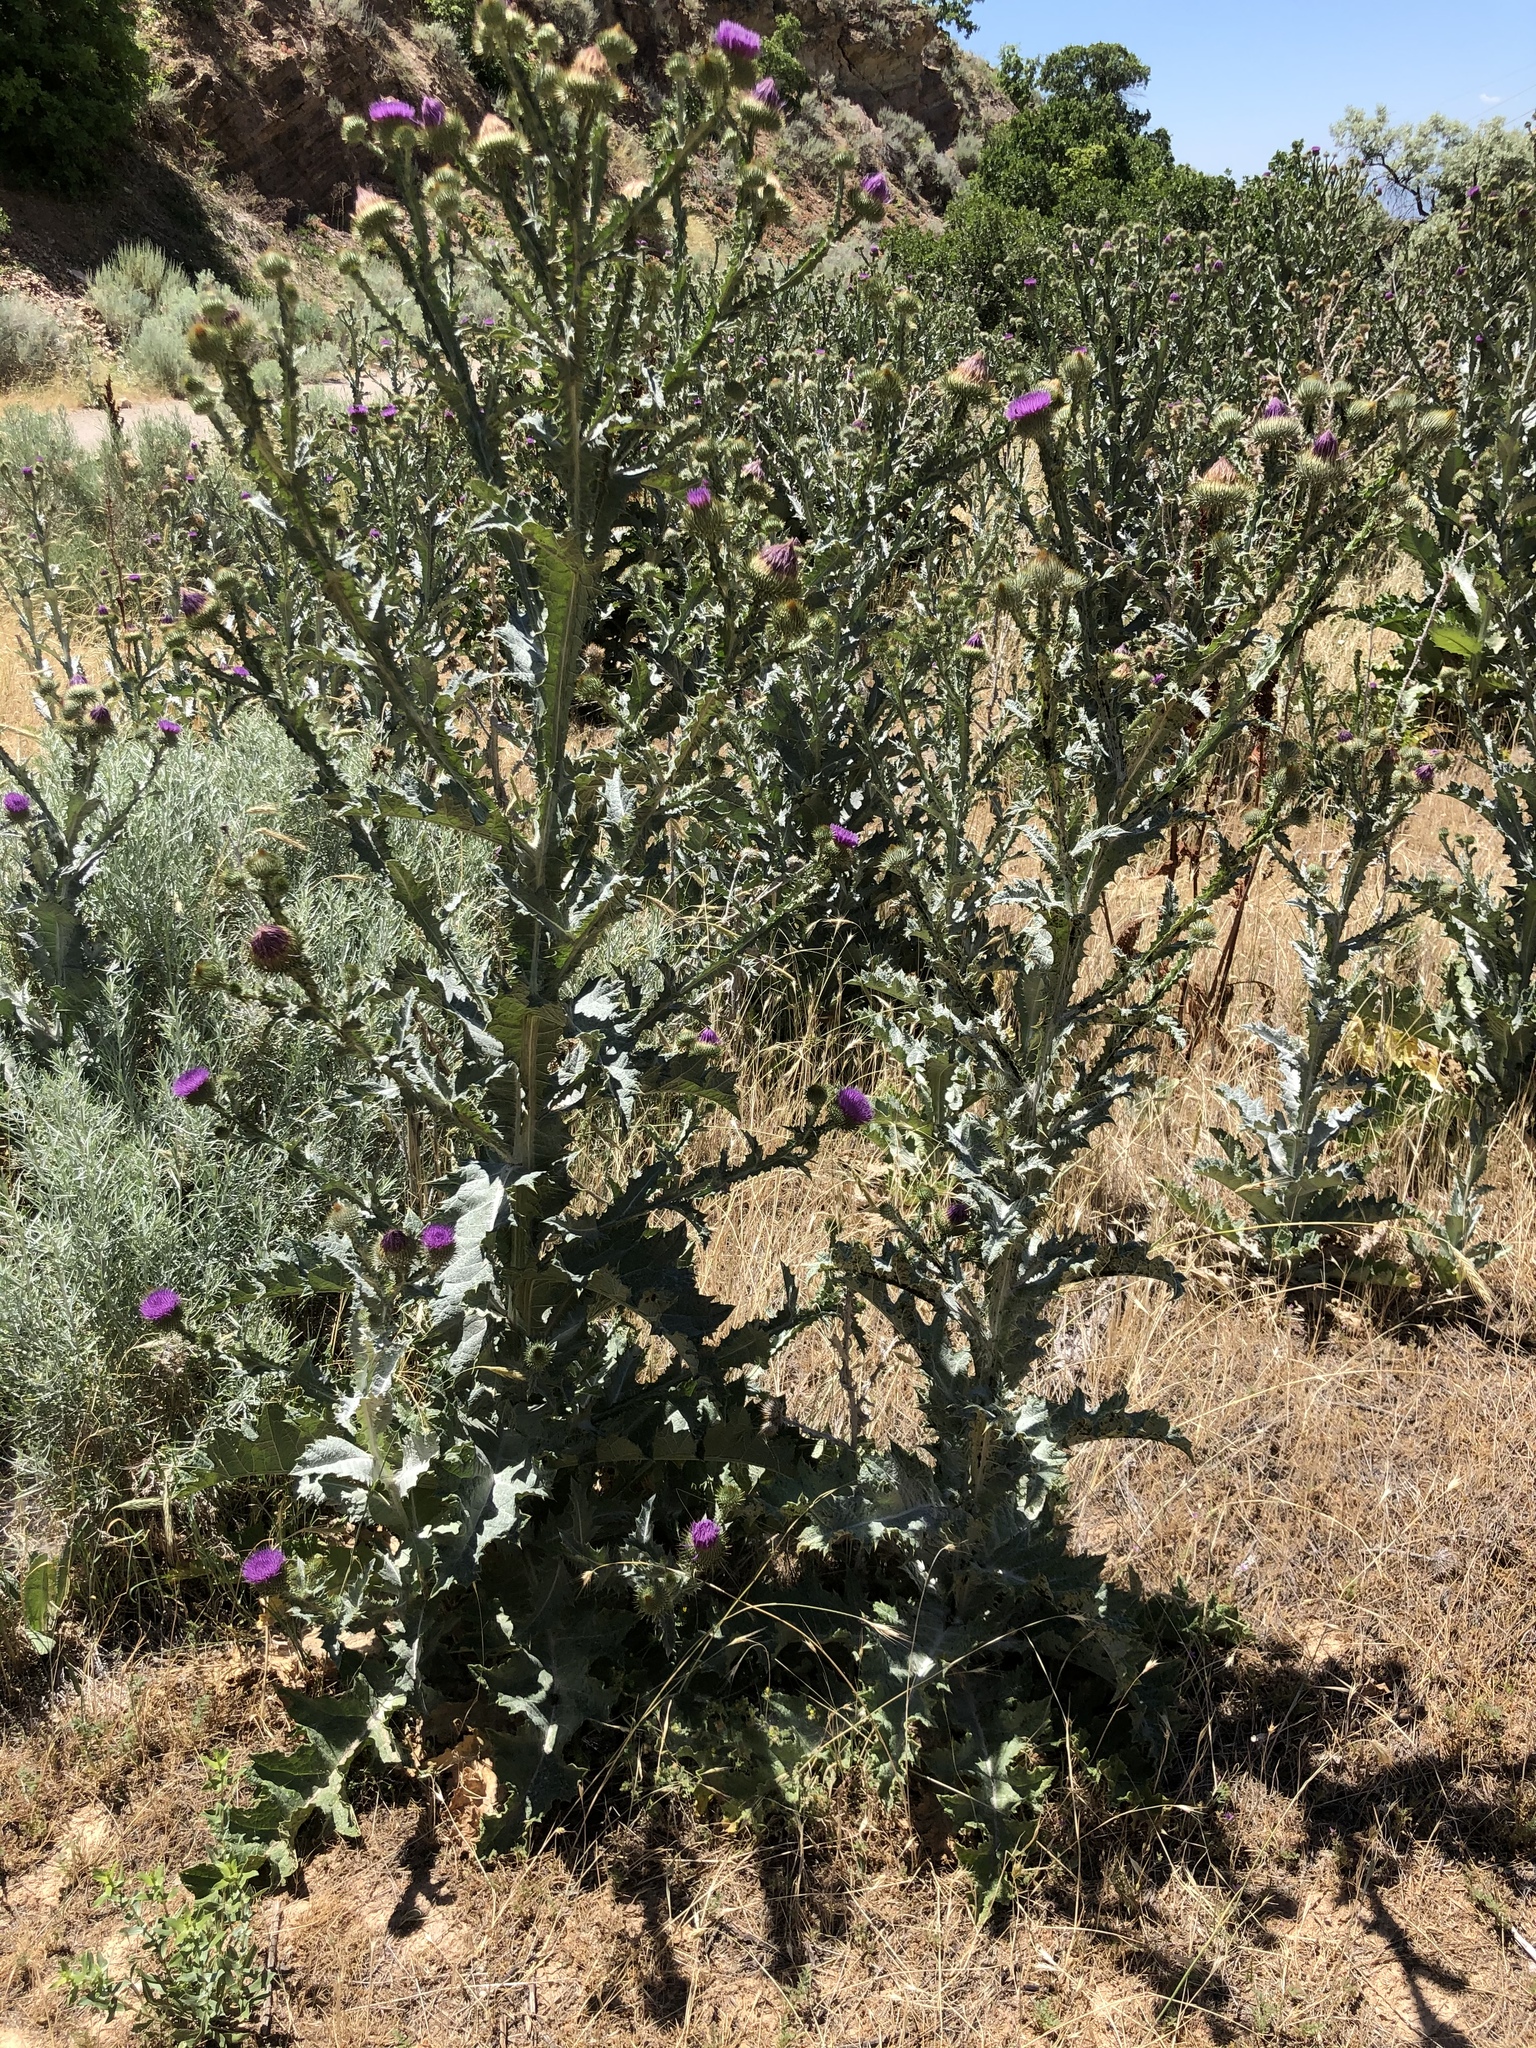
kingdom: Plantae
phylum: Tracheophyta
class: Magnoliopsida
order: Asterales
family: Asteraceae
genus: Onopordum
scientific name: Onopordum acanthium
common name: Scotch thistle
